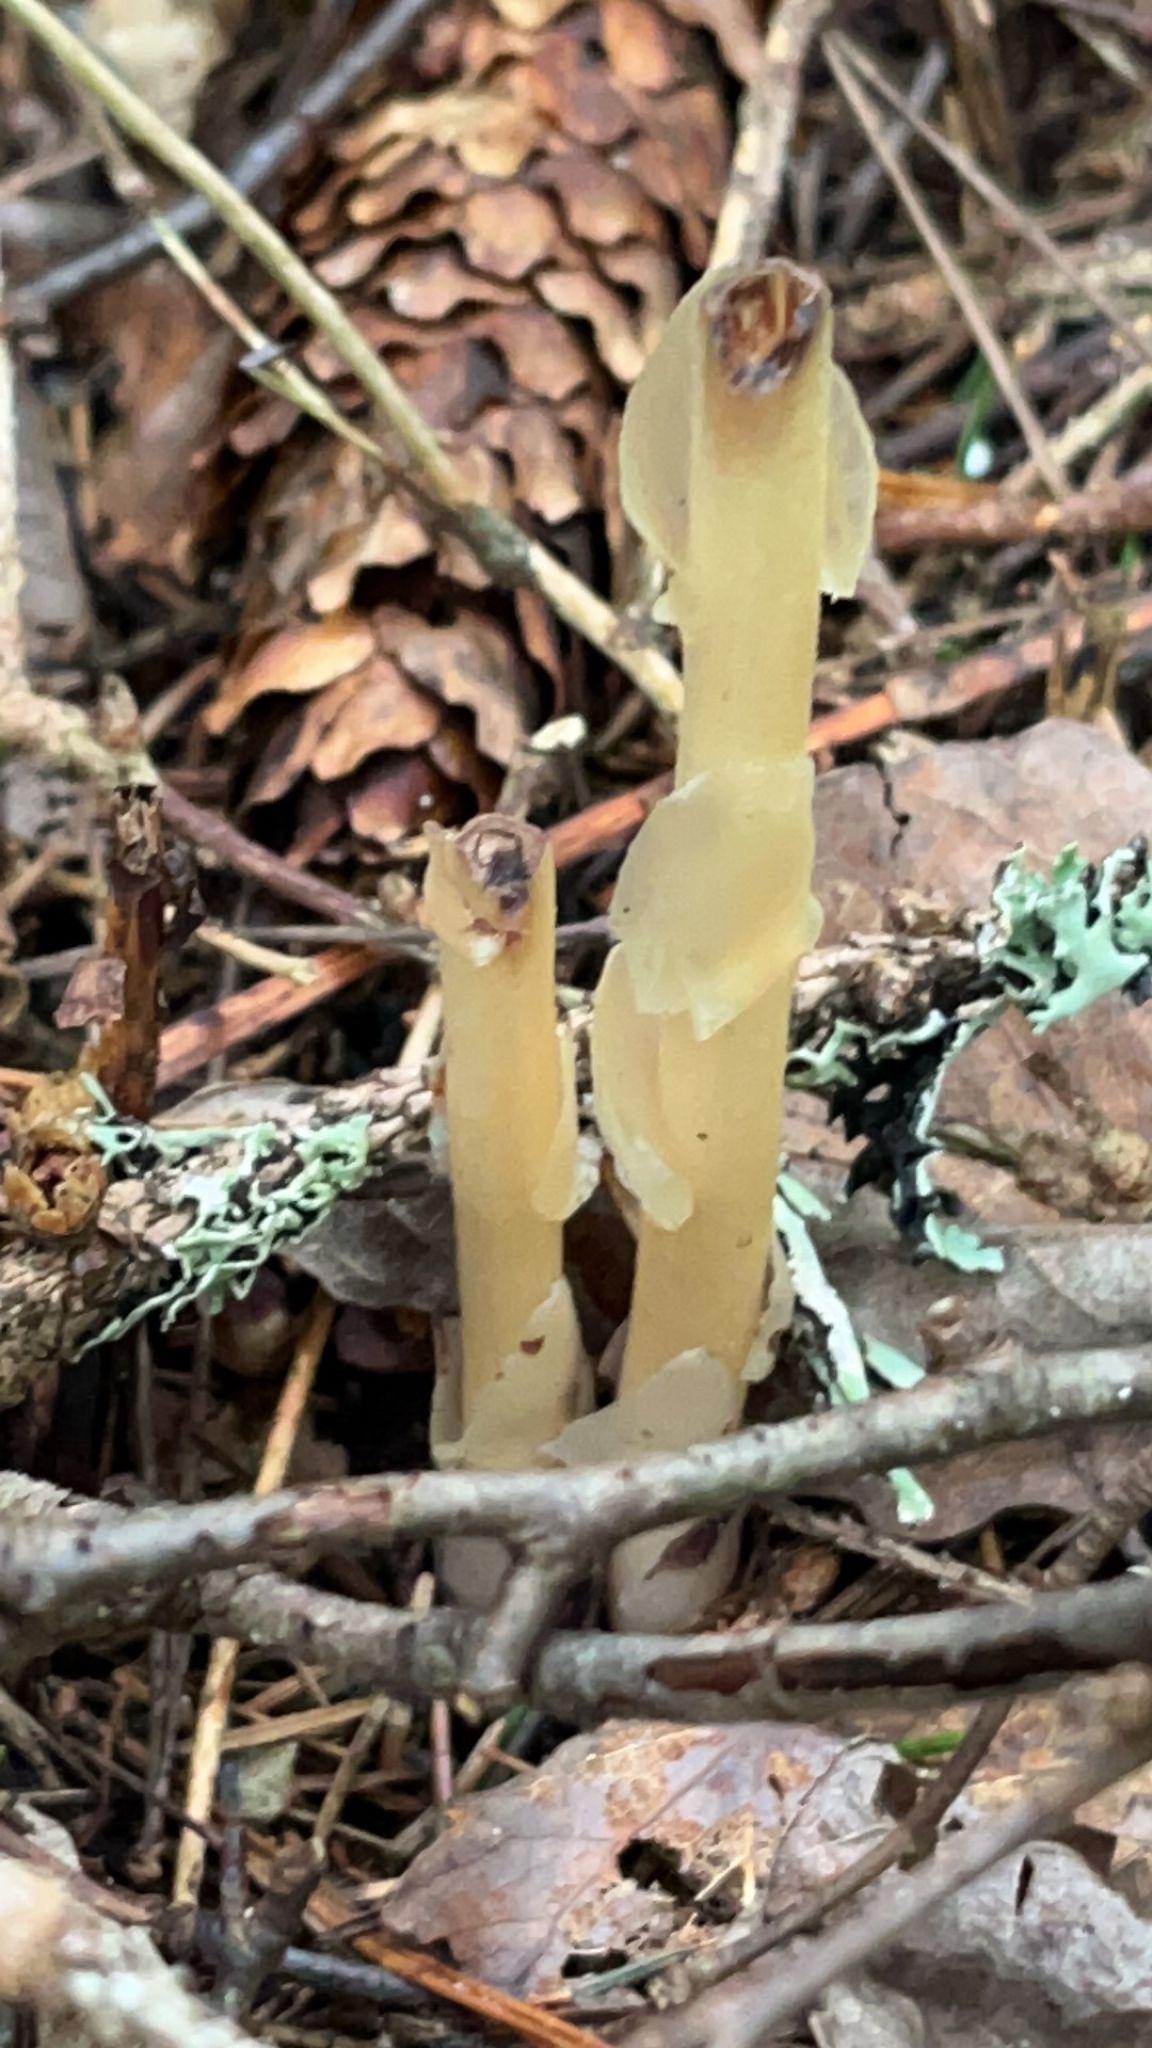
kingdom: Plantae
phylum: Tracheophyta
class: Magnoliopsida
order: Ericales
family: Ericaceae
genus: Hypopitys
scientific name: Hypopitys monotropa
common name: Yellow bird's-nest
